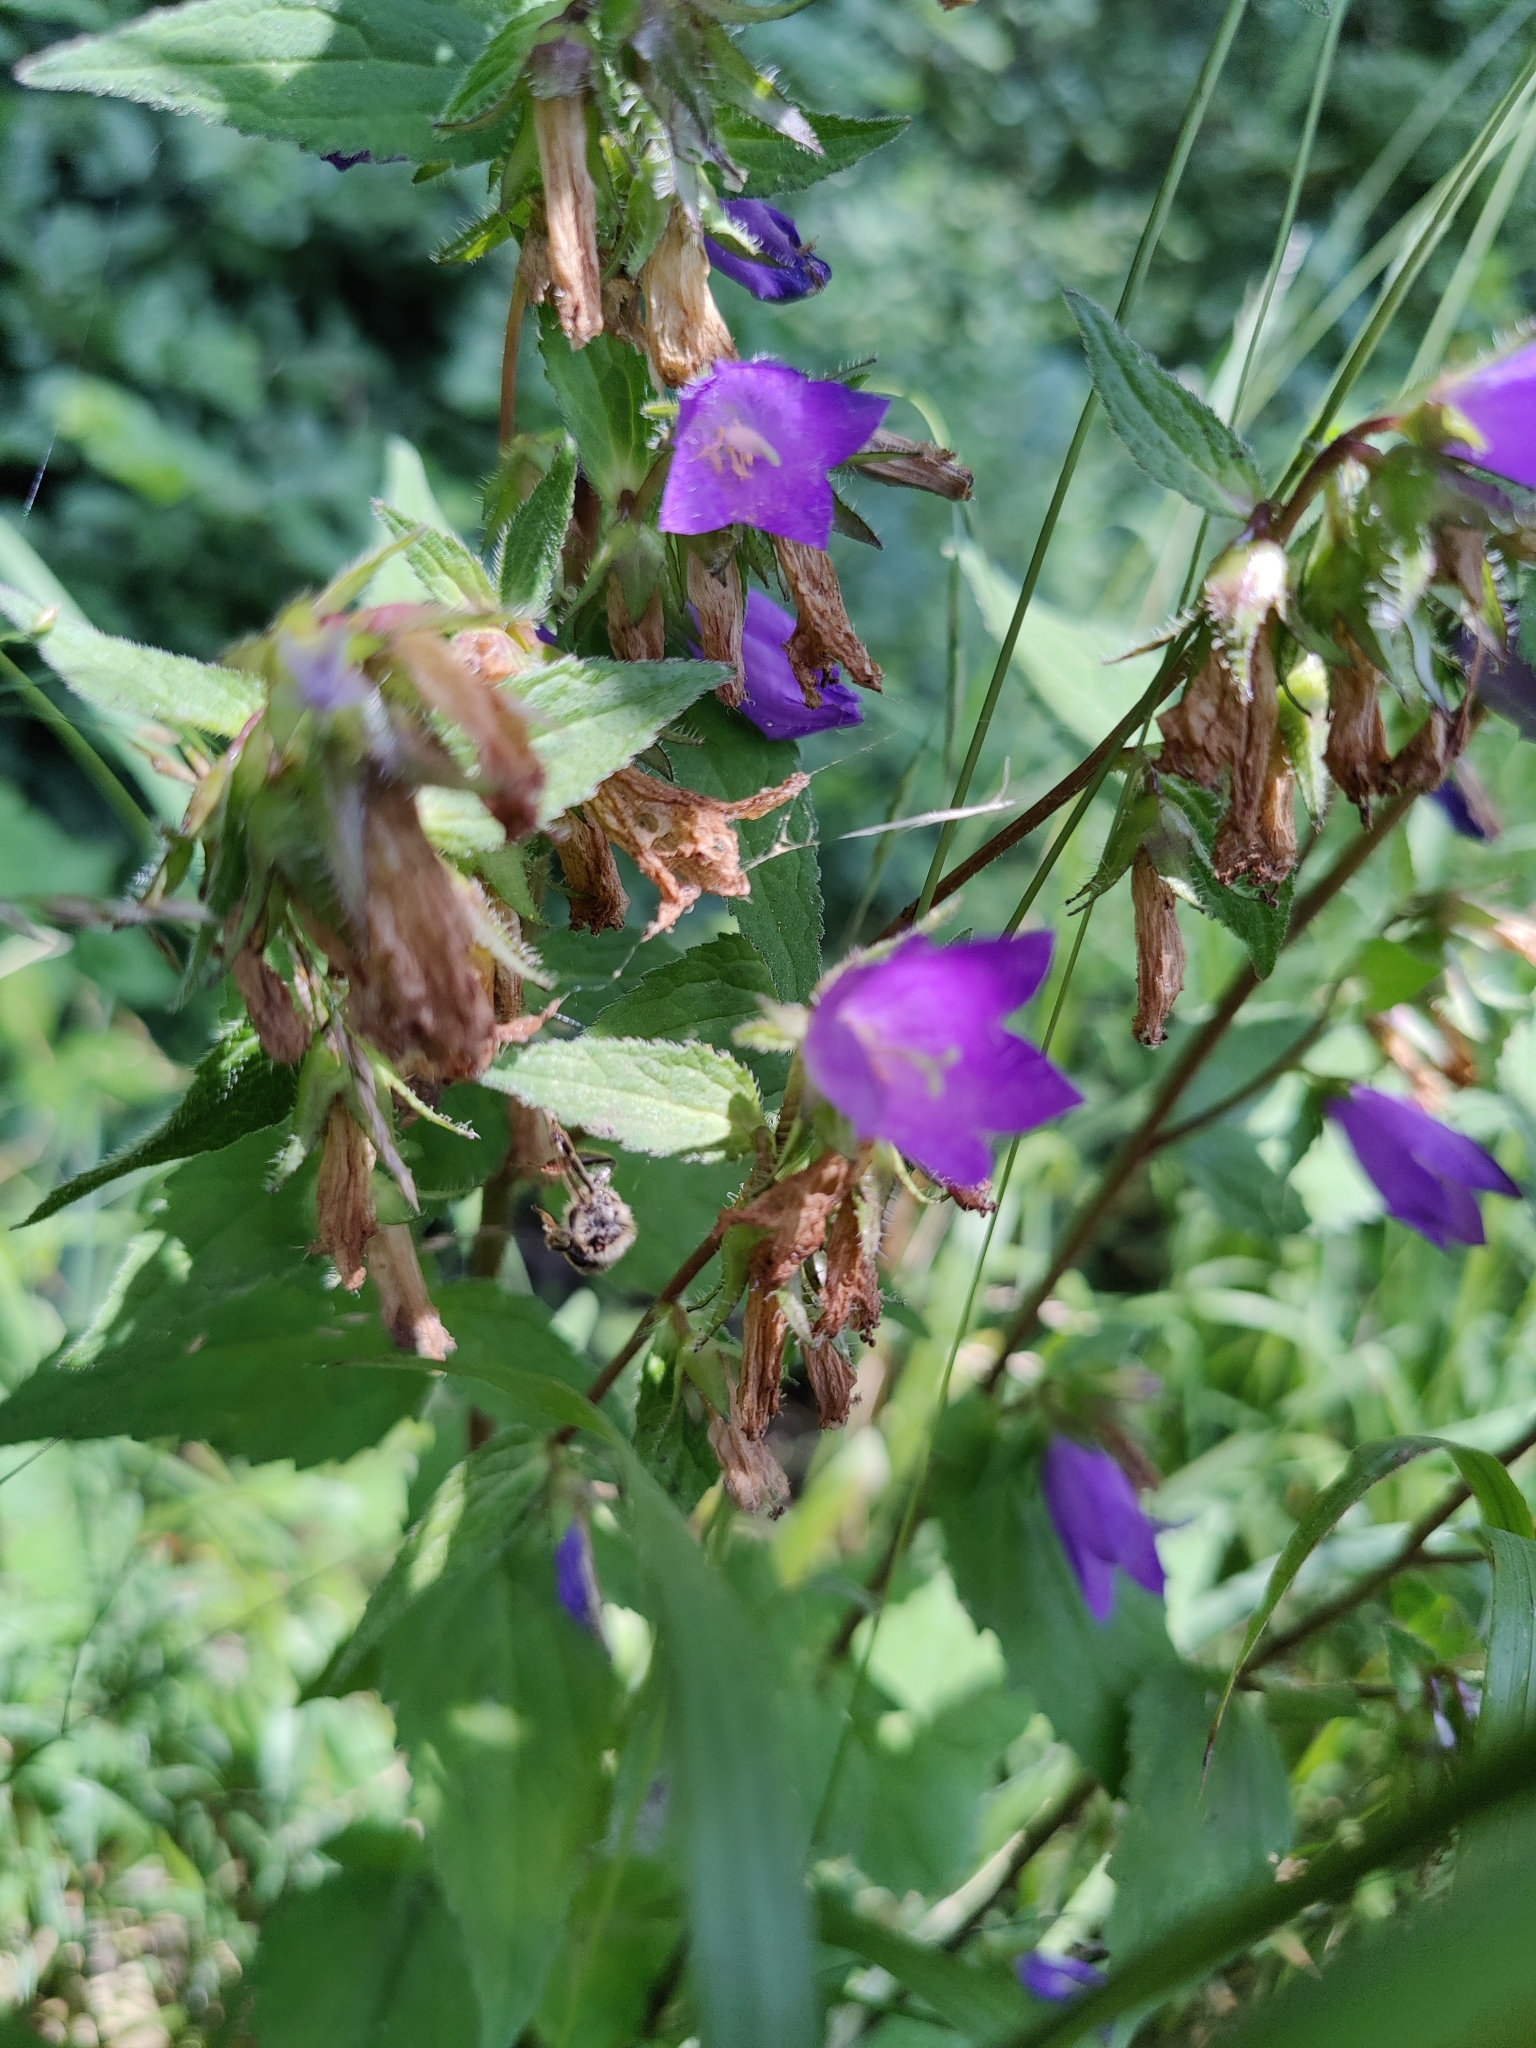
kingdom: Plantae
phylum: Tracheophyta
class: Magnoliopsida
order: Asterales
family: Campanulaceae
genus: Campanula
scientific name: Campanula trachelium
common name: Nettle-leaved bellflower
